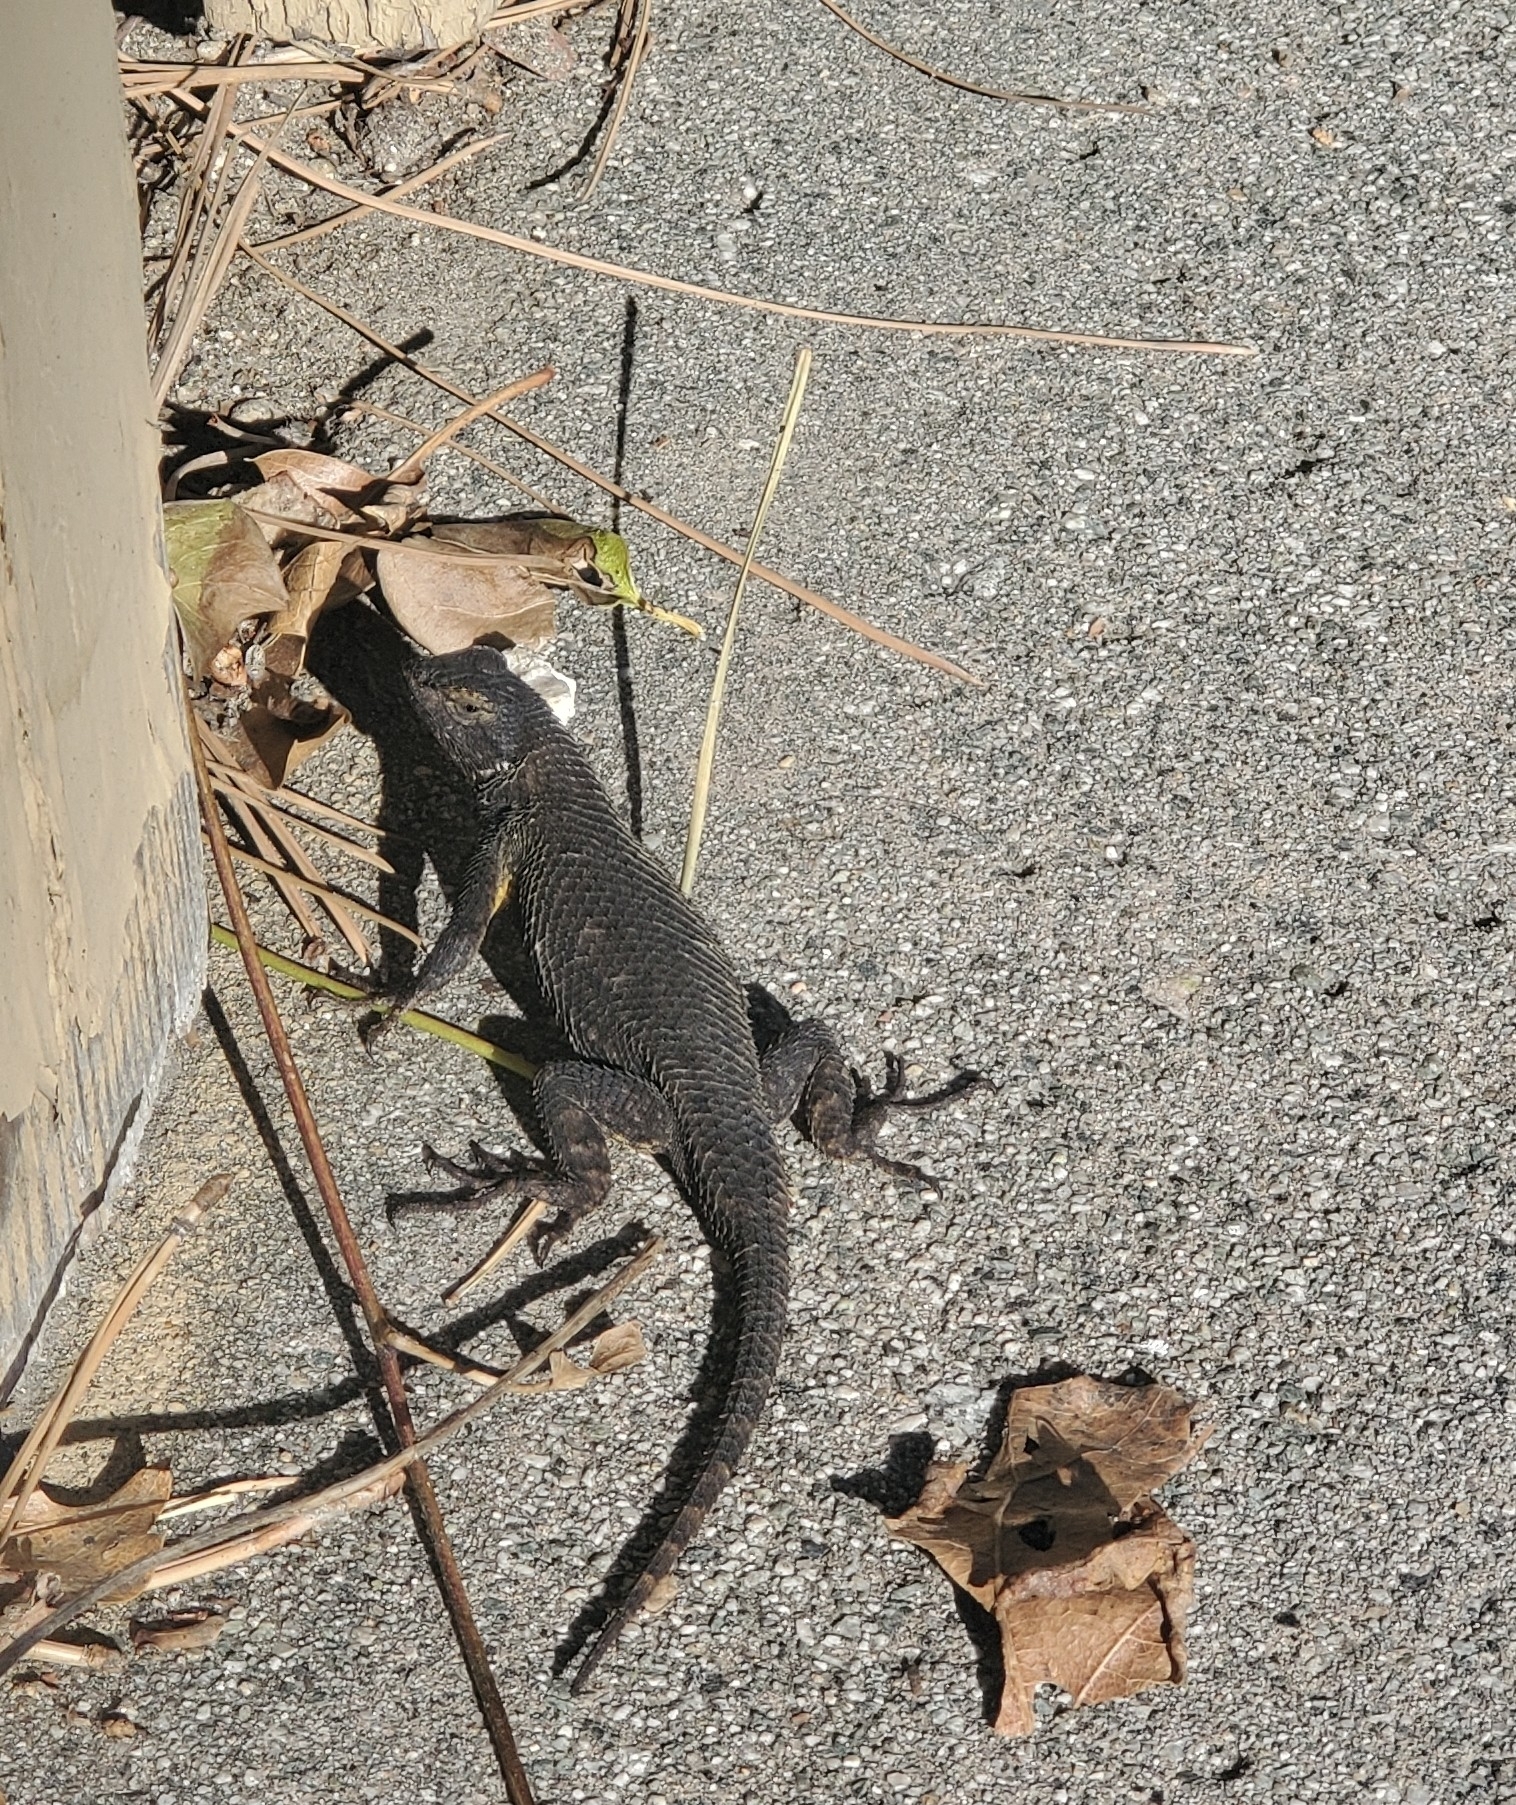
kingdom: Animalia
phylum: Chordata
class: Squamata
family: Phrynosomatidae
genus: Sceloporus
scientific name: Sceloporus occidentalis
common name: Western fence lizard
